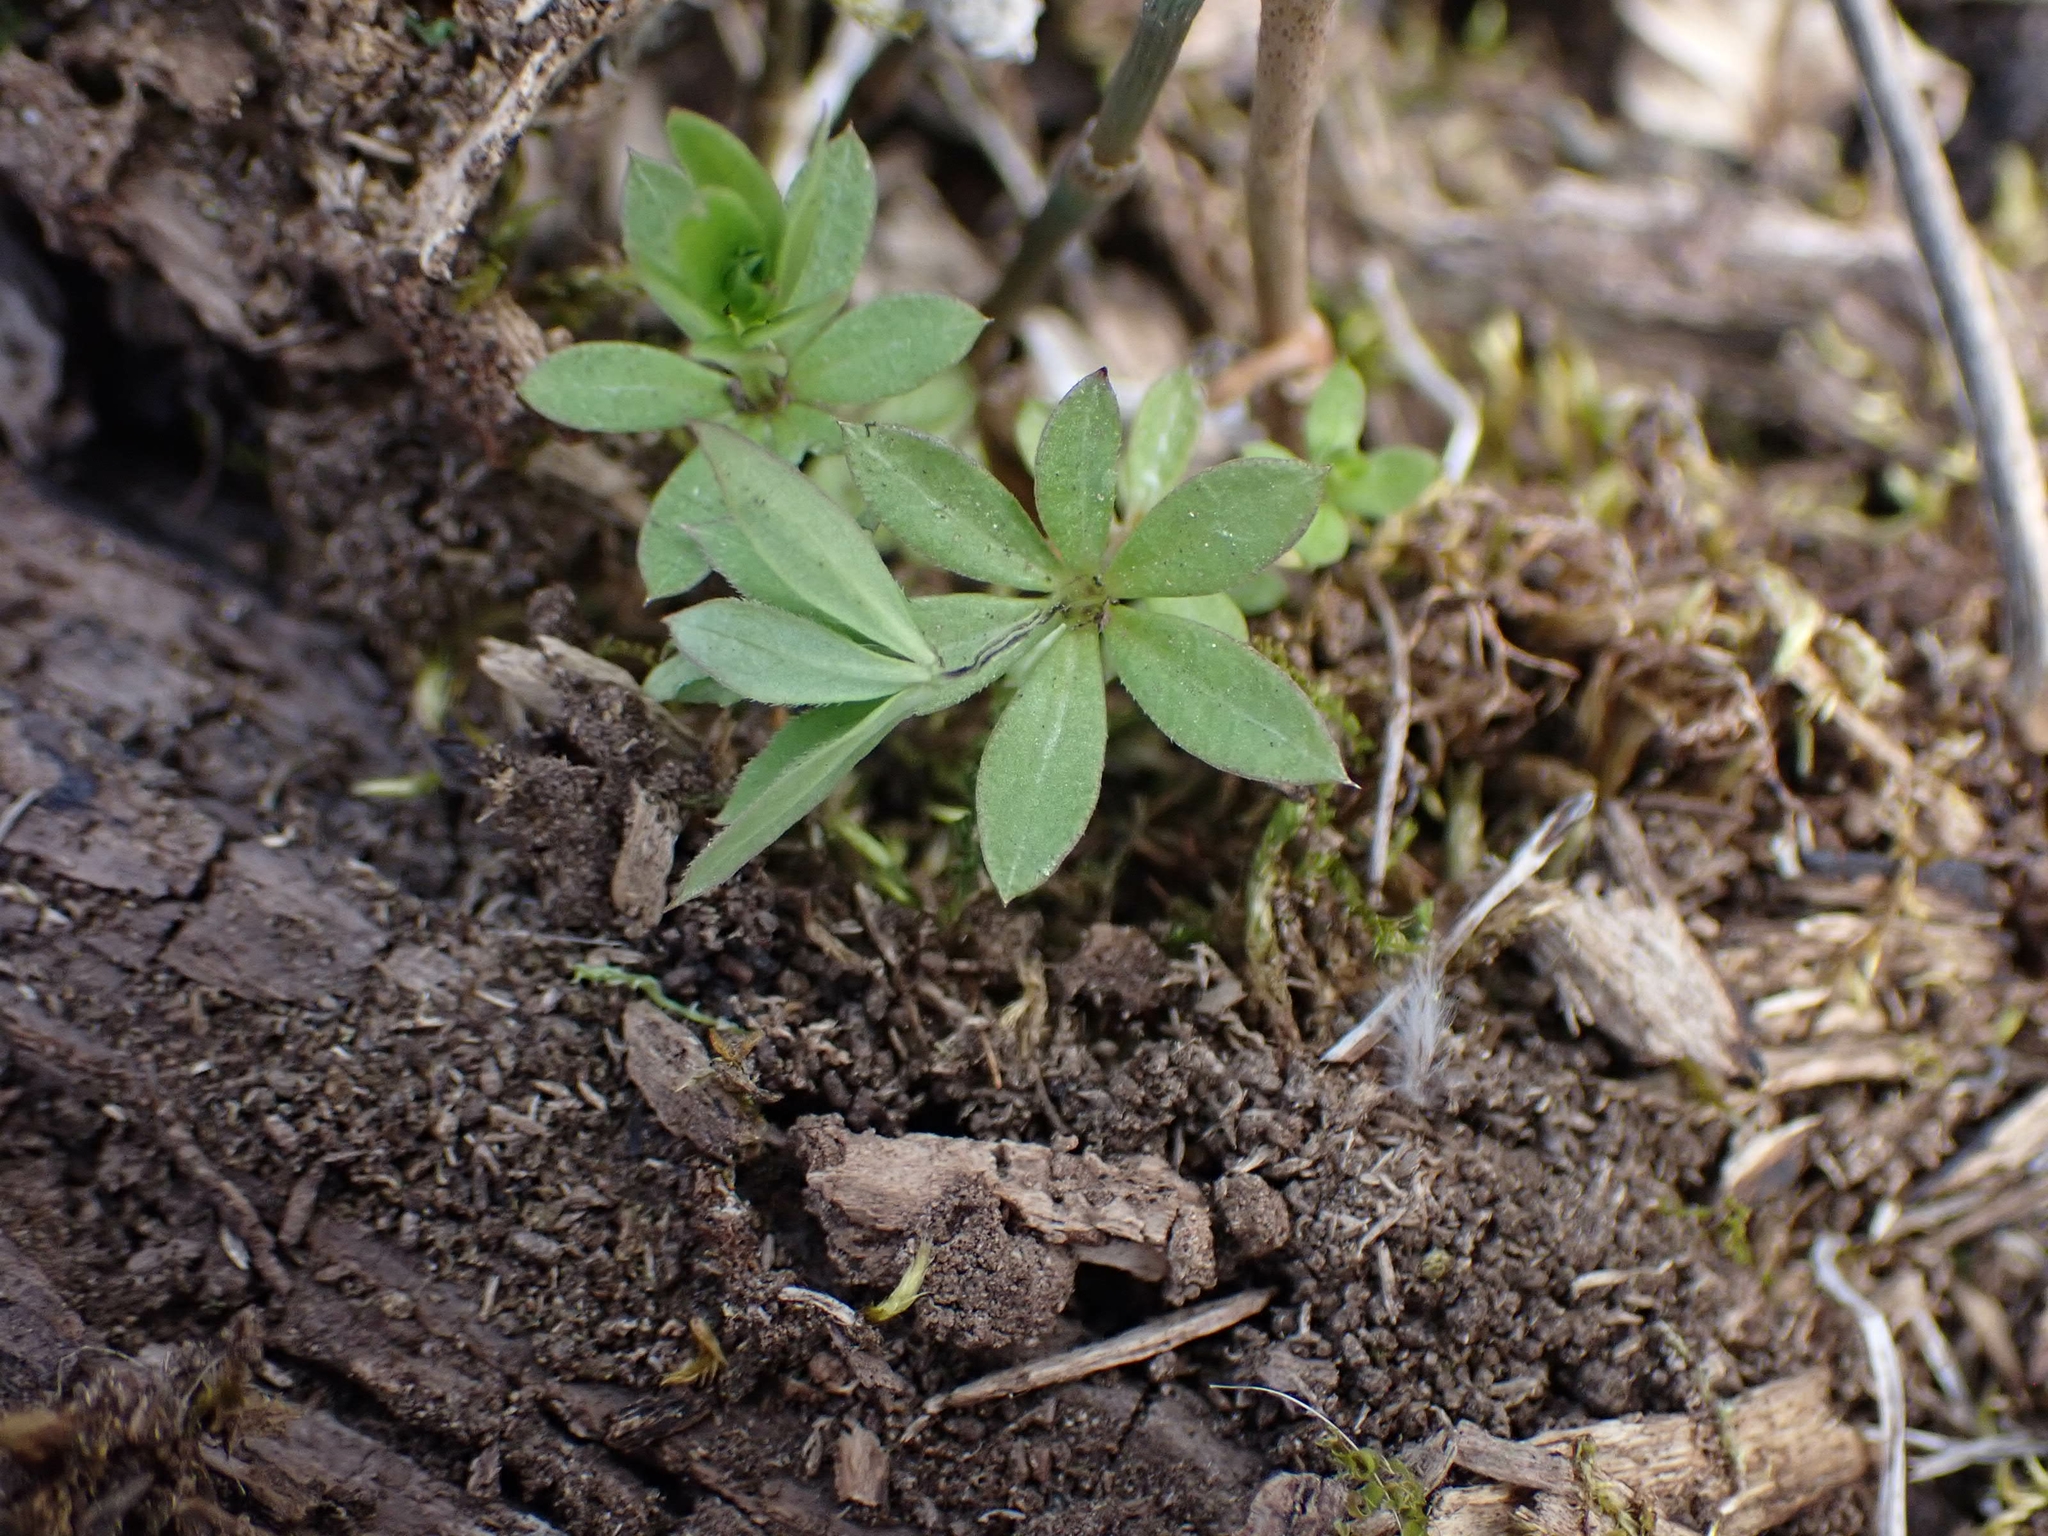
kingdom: Plantae
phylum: Tracheophyta
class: Magnoliopsida
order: Gentianales
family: Rubiaceae
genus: Galium
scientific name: Galium triflorum
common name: Fragrant bedstraw
